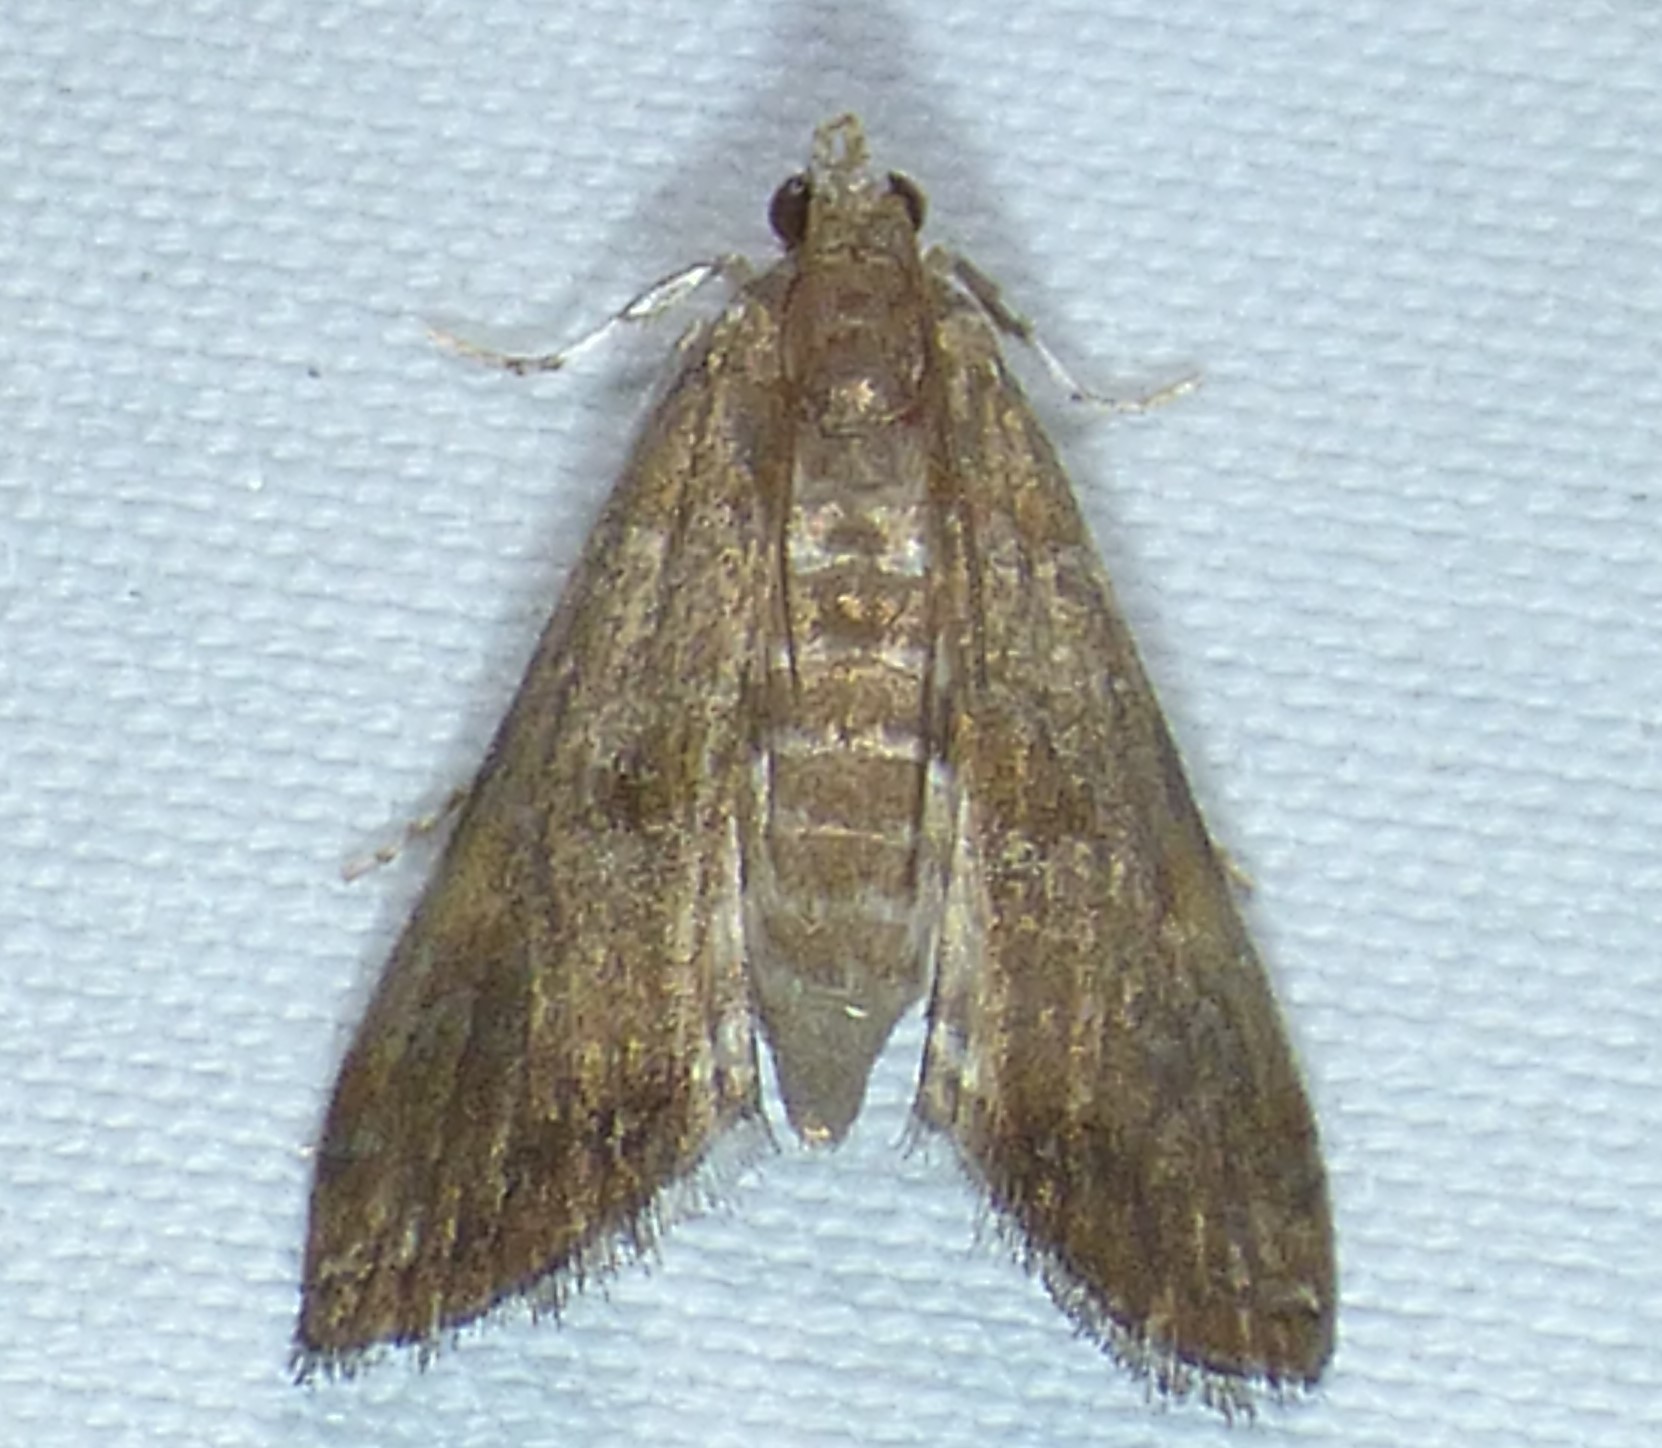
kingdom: Animalia
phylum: Arthropoda
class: Insecta
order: Lepidoptera
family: Crambidae
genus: Elophila
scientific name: Elophila gyralis
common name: Waterlily borer moth
